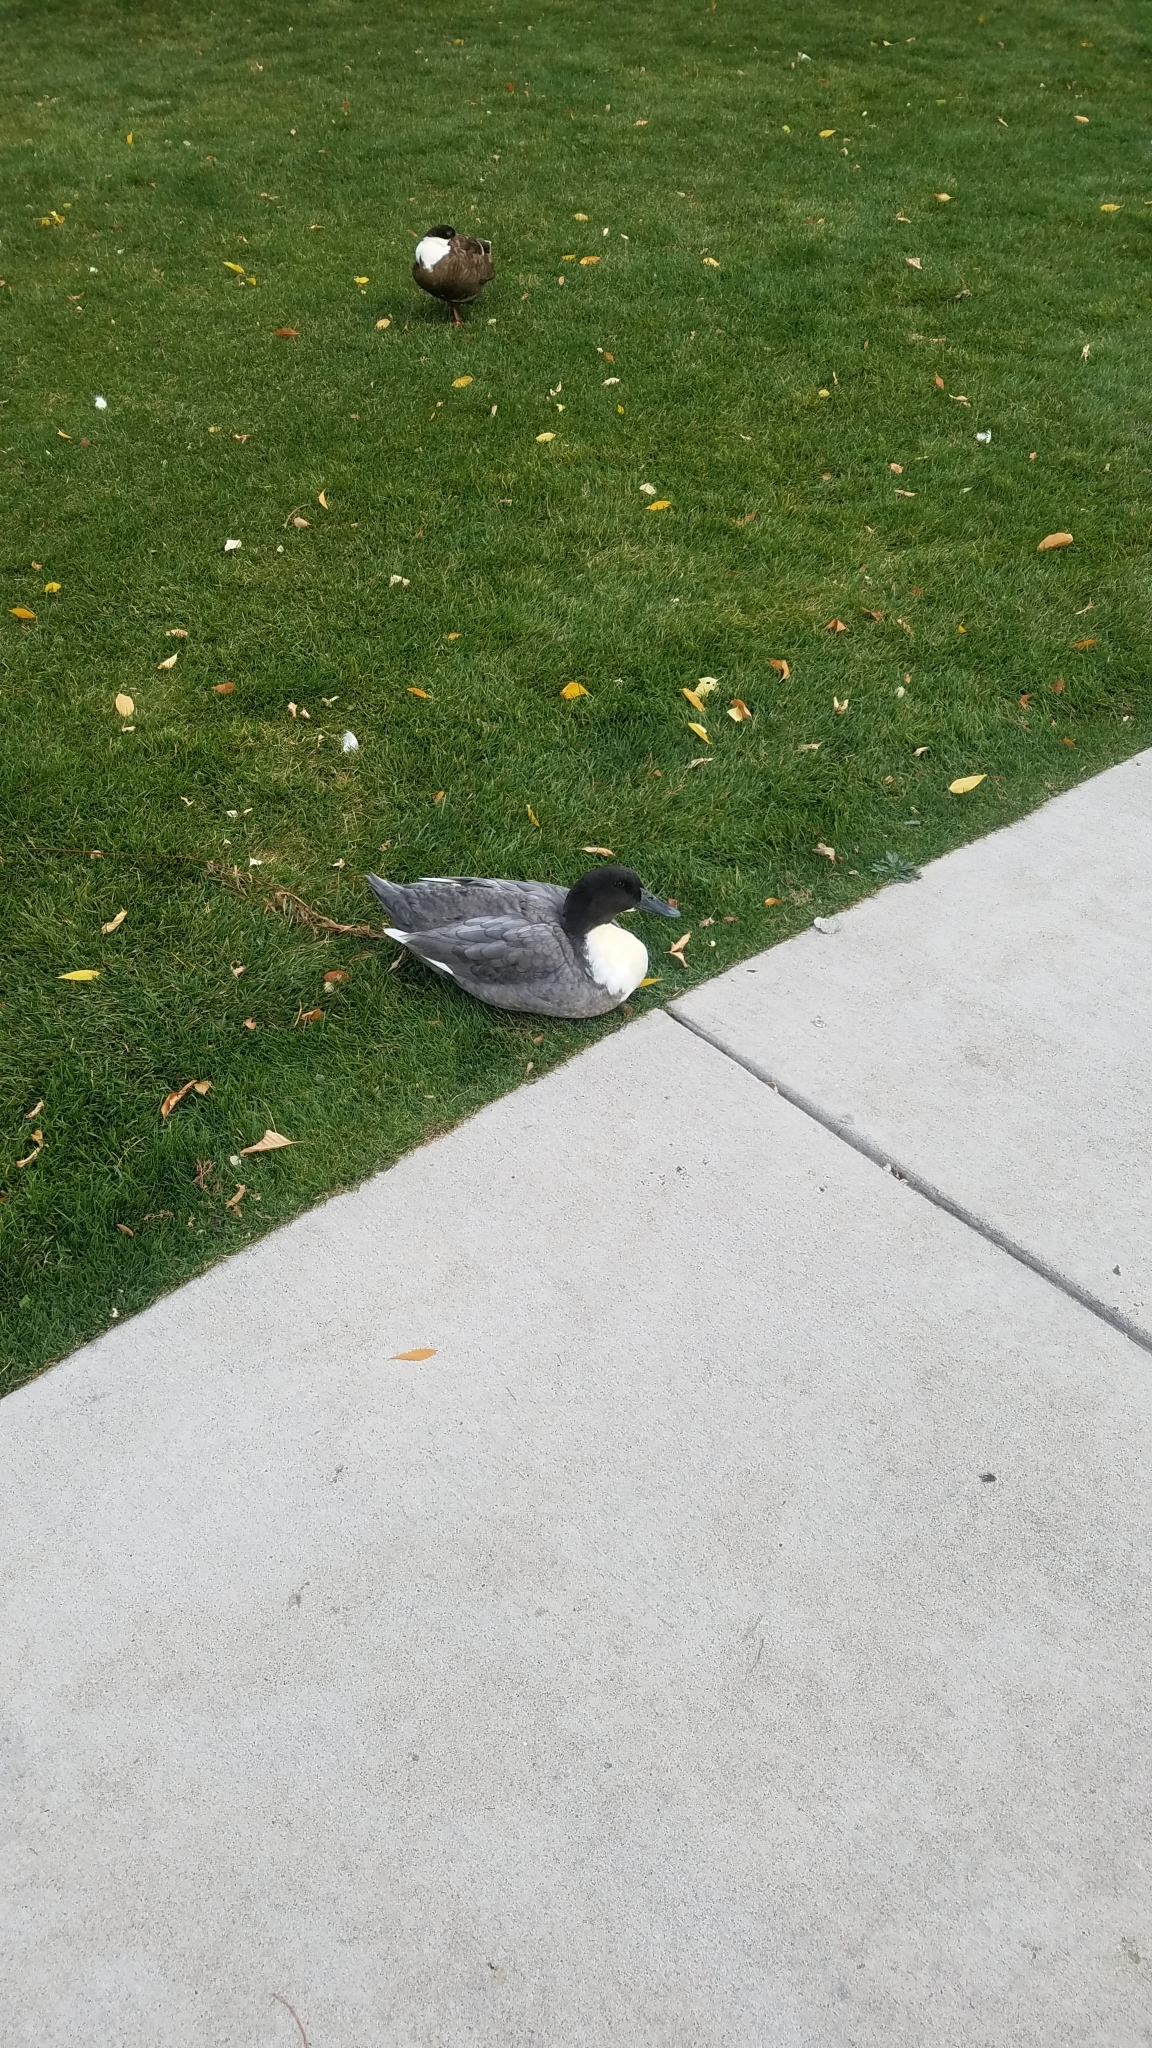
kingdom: Animalia
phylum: Chordata
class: Aves
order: Anseriformes
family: Anatidae
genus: Anas
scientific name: Anas platyrhynchos
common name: Mallard
